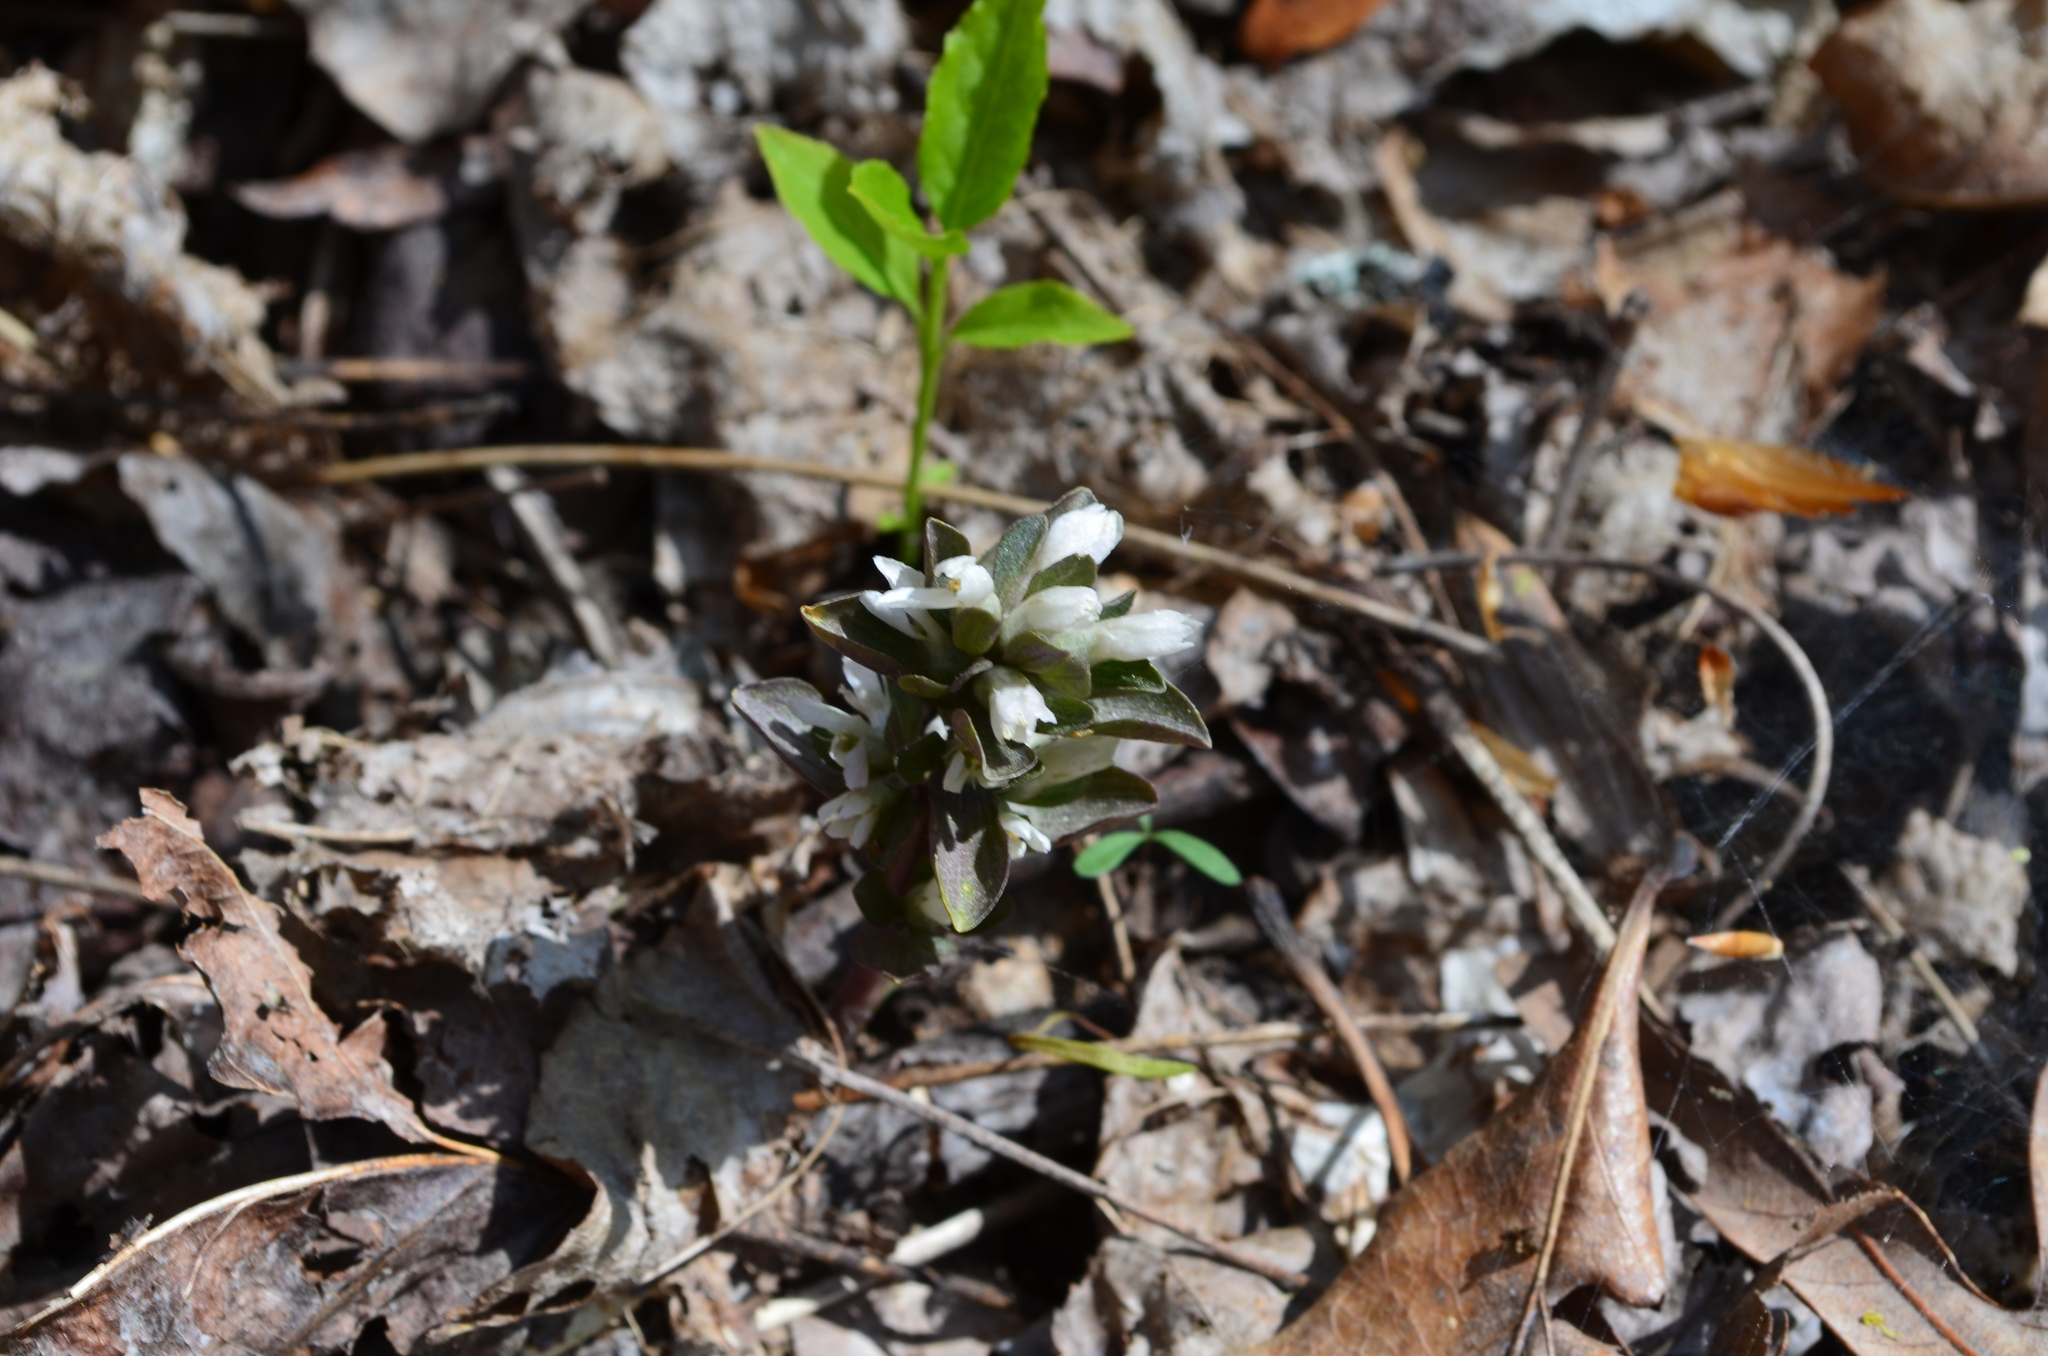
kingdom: Plantae
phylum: Tracheophyta
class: Magnoliopsida
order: Gentianales
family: Gentianaceae
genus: Obolaria
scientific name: Obolaria virginica
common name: Pennywort
